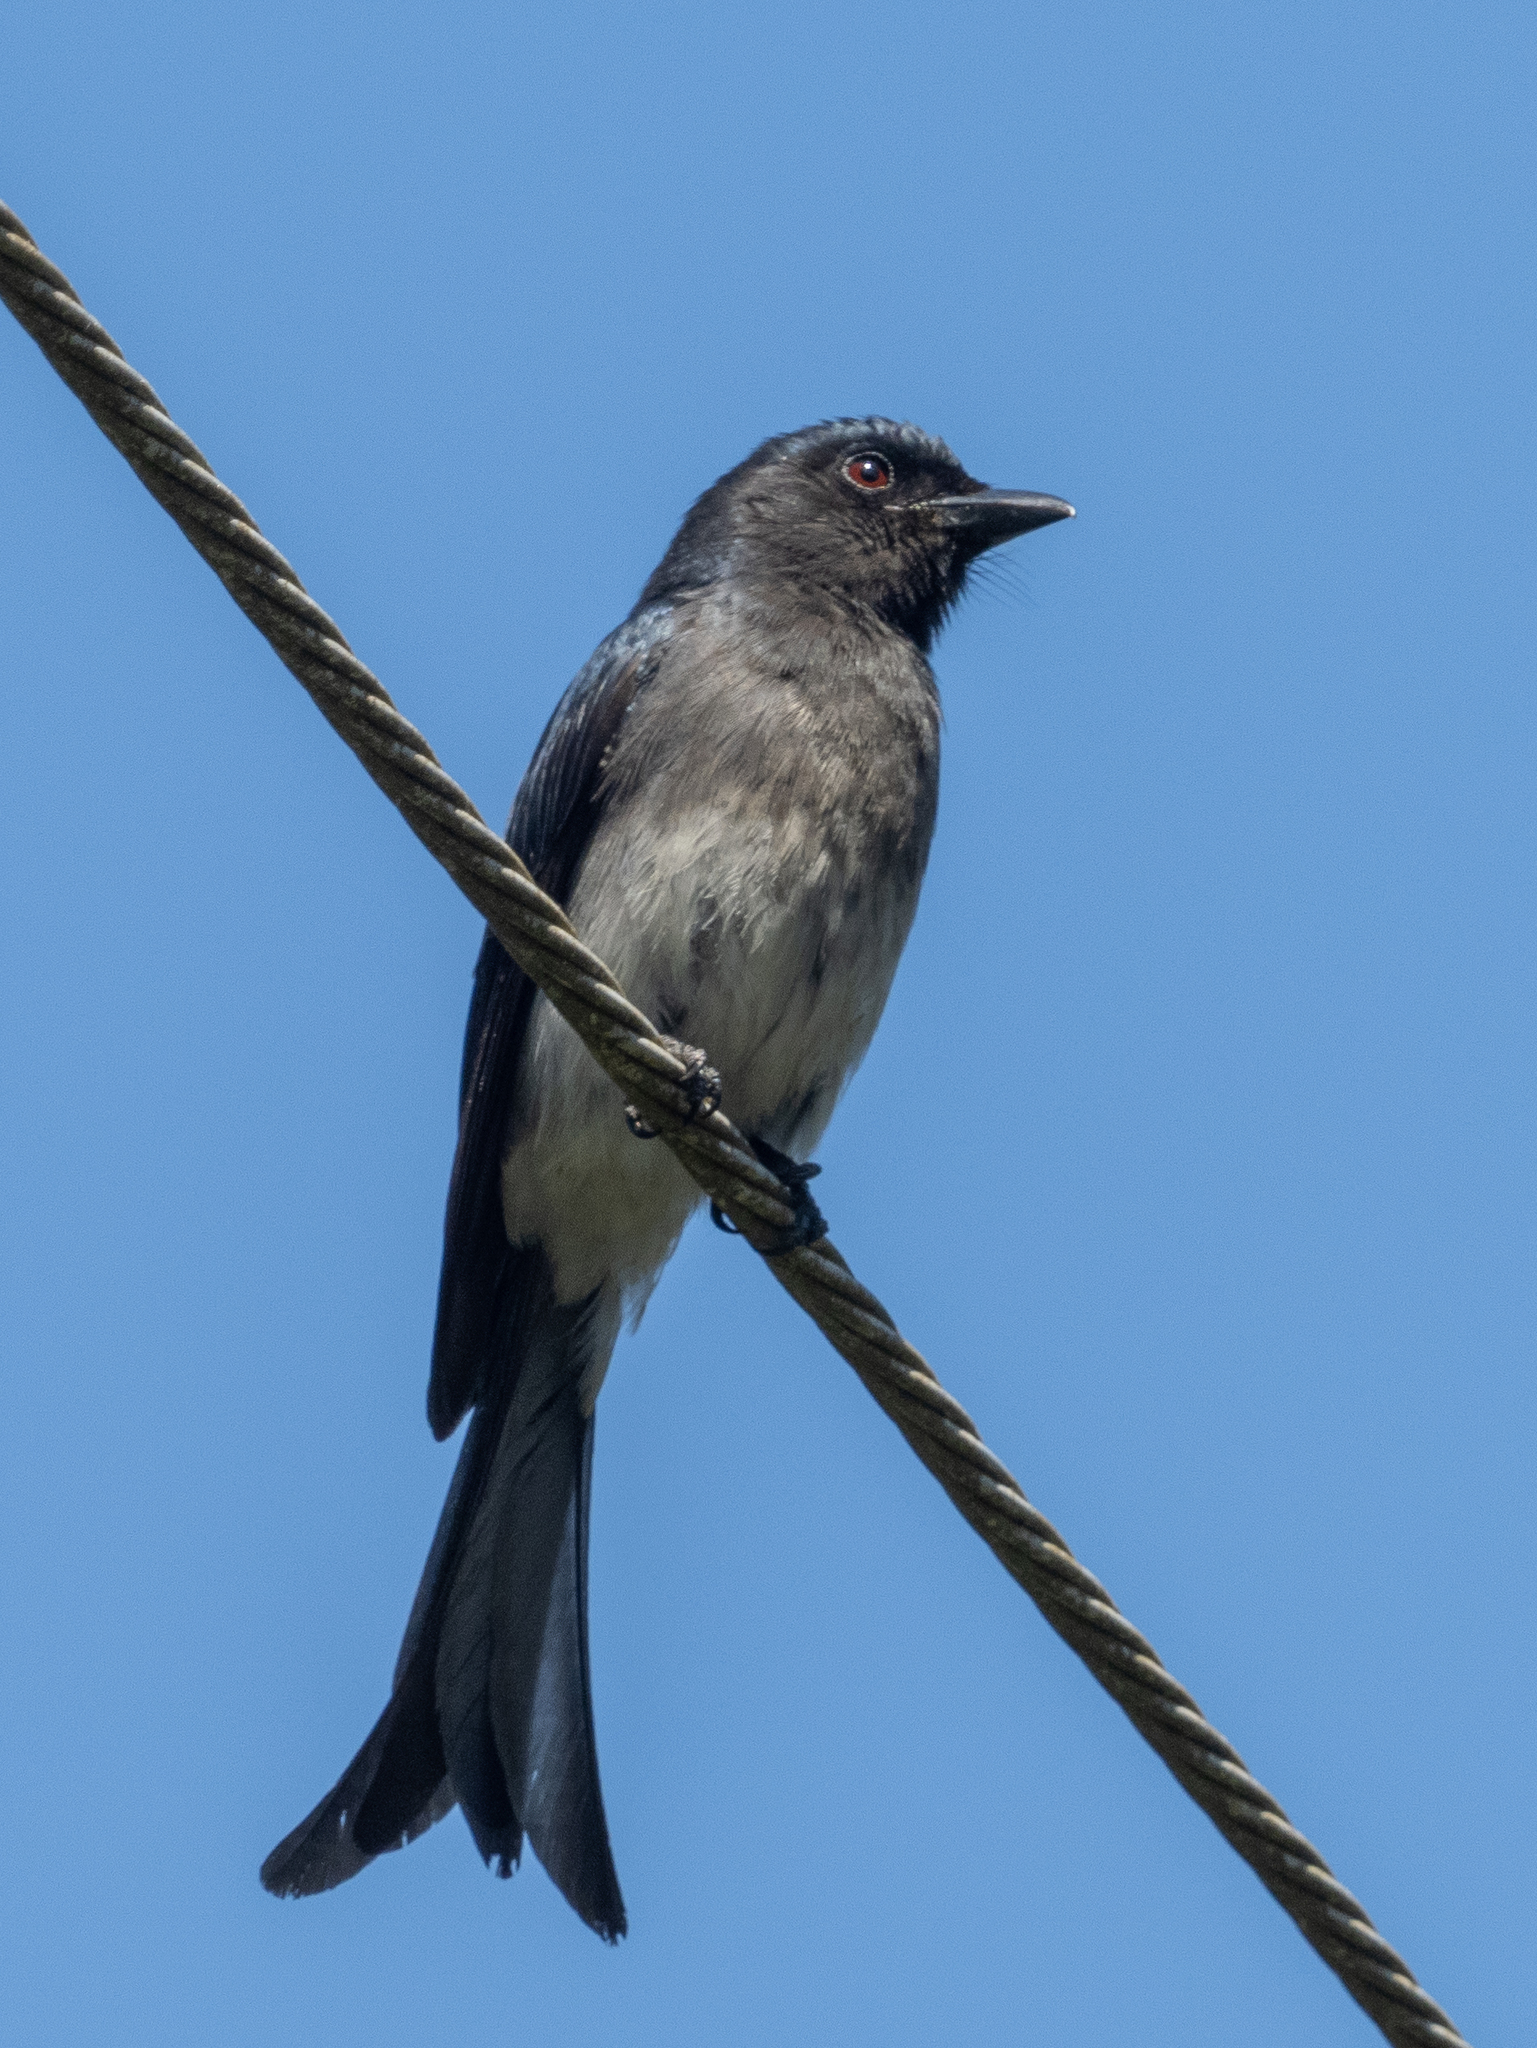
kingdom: Animalia
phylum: Chordata
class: Aves
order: Passeriformes
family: Dicruridae
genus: Dicrurus
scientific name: Dicrurus caerulescens
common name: White-bellied drongo
